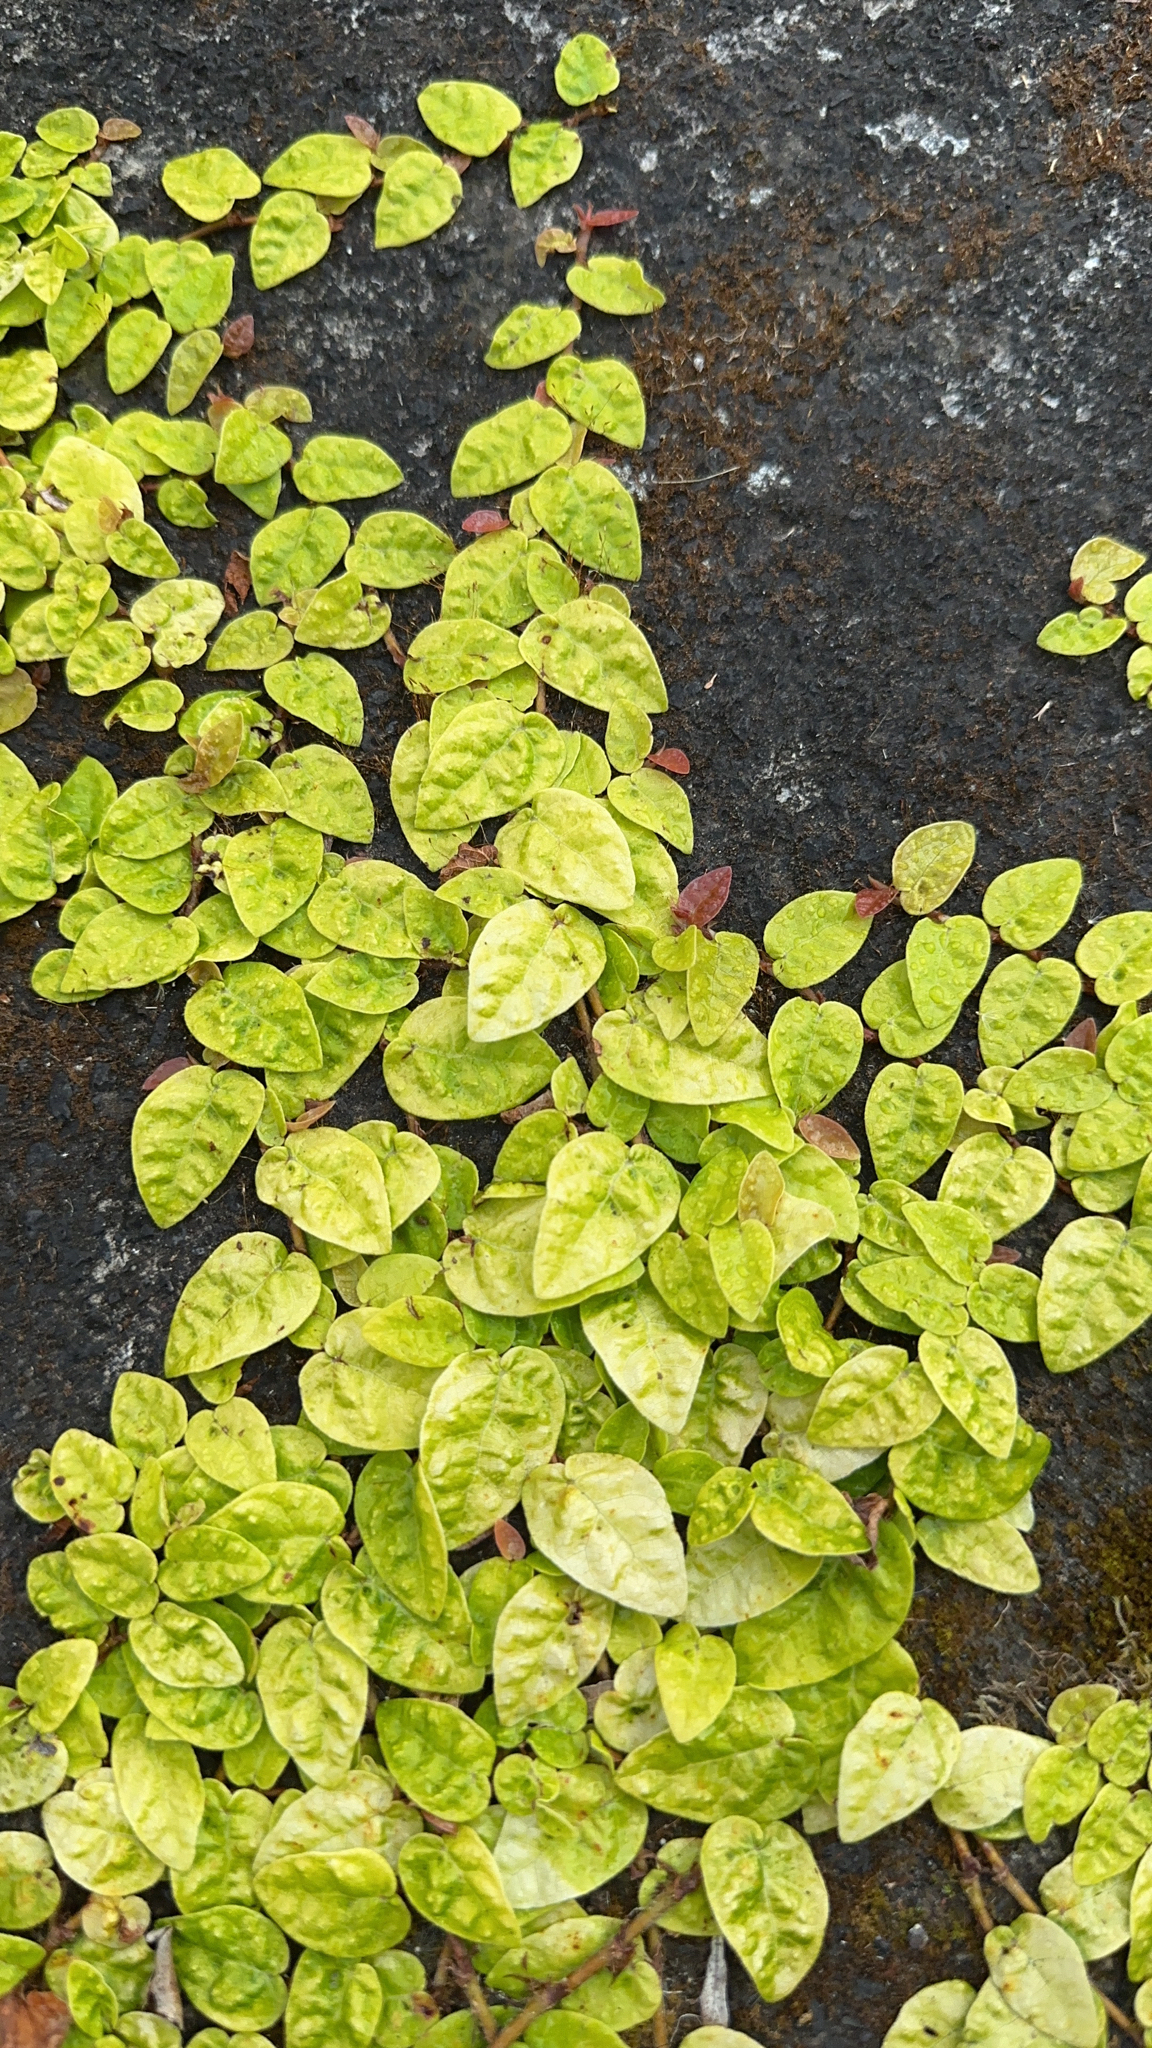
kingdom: Plantae
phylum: Tracheophyta
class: Magnoliopsida
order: Rosales
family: Moraceae
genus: Ficus
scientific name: Ficus pumila
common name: Climbingfig
